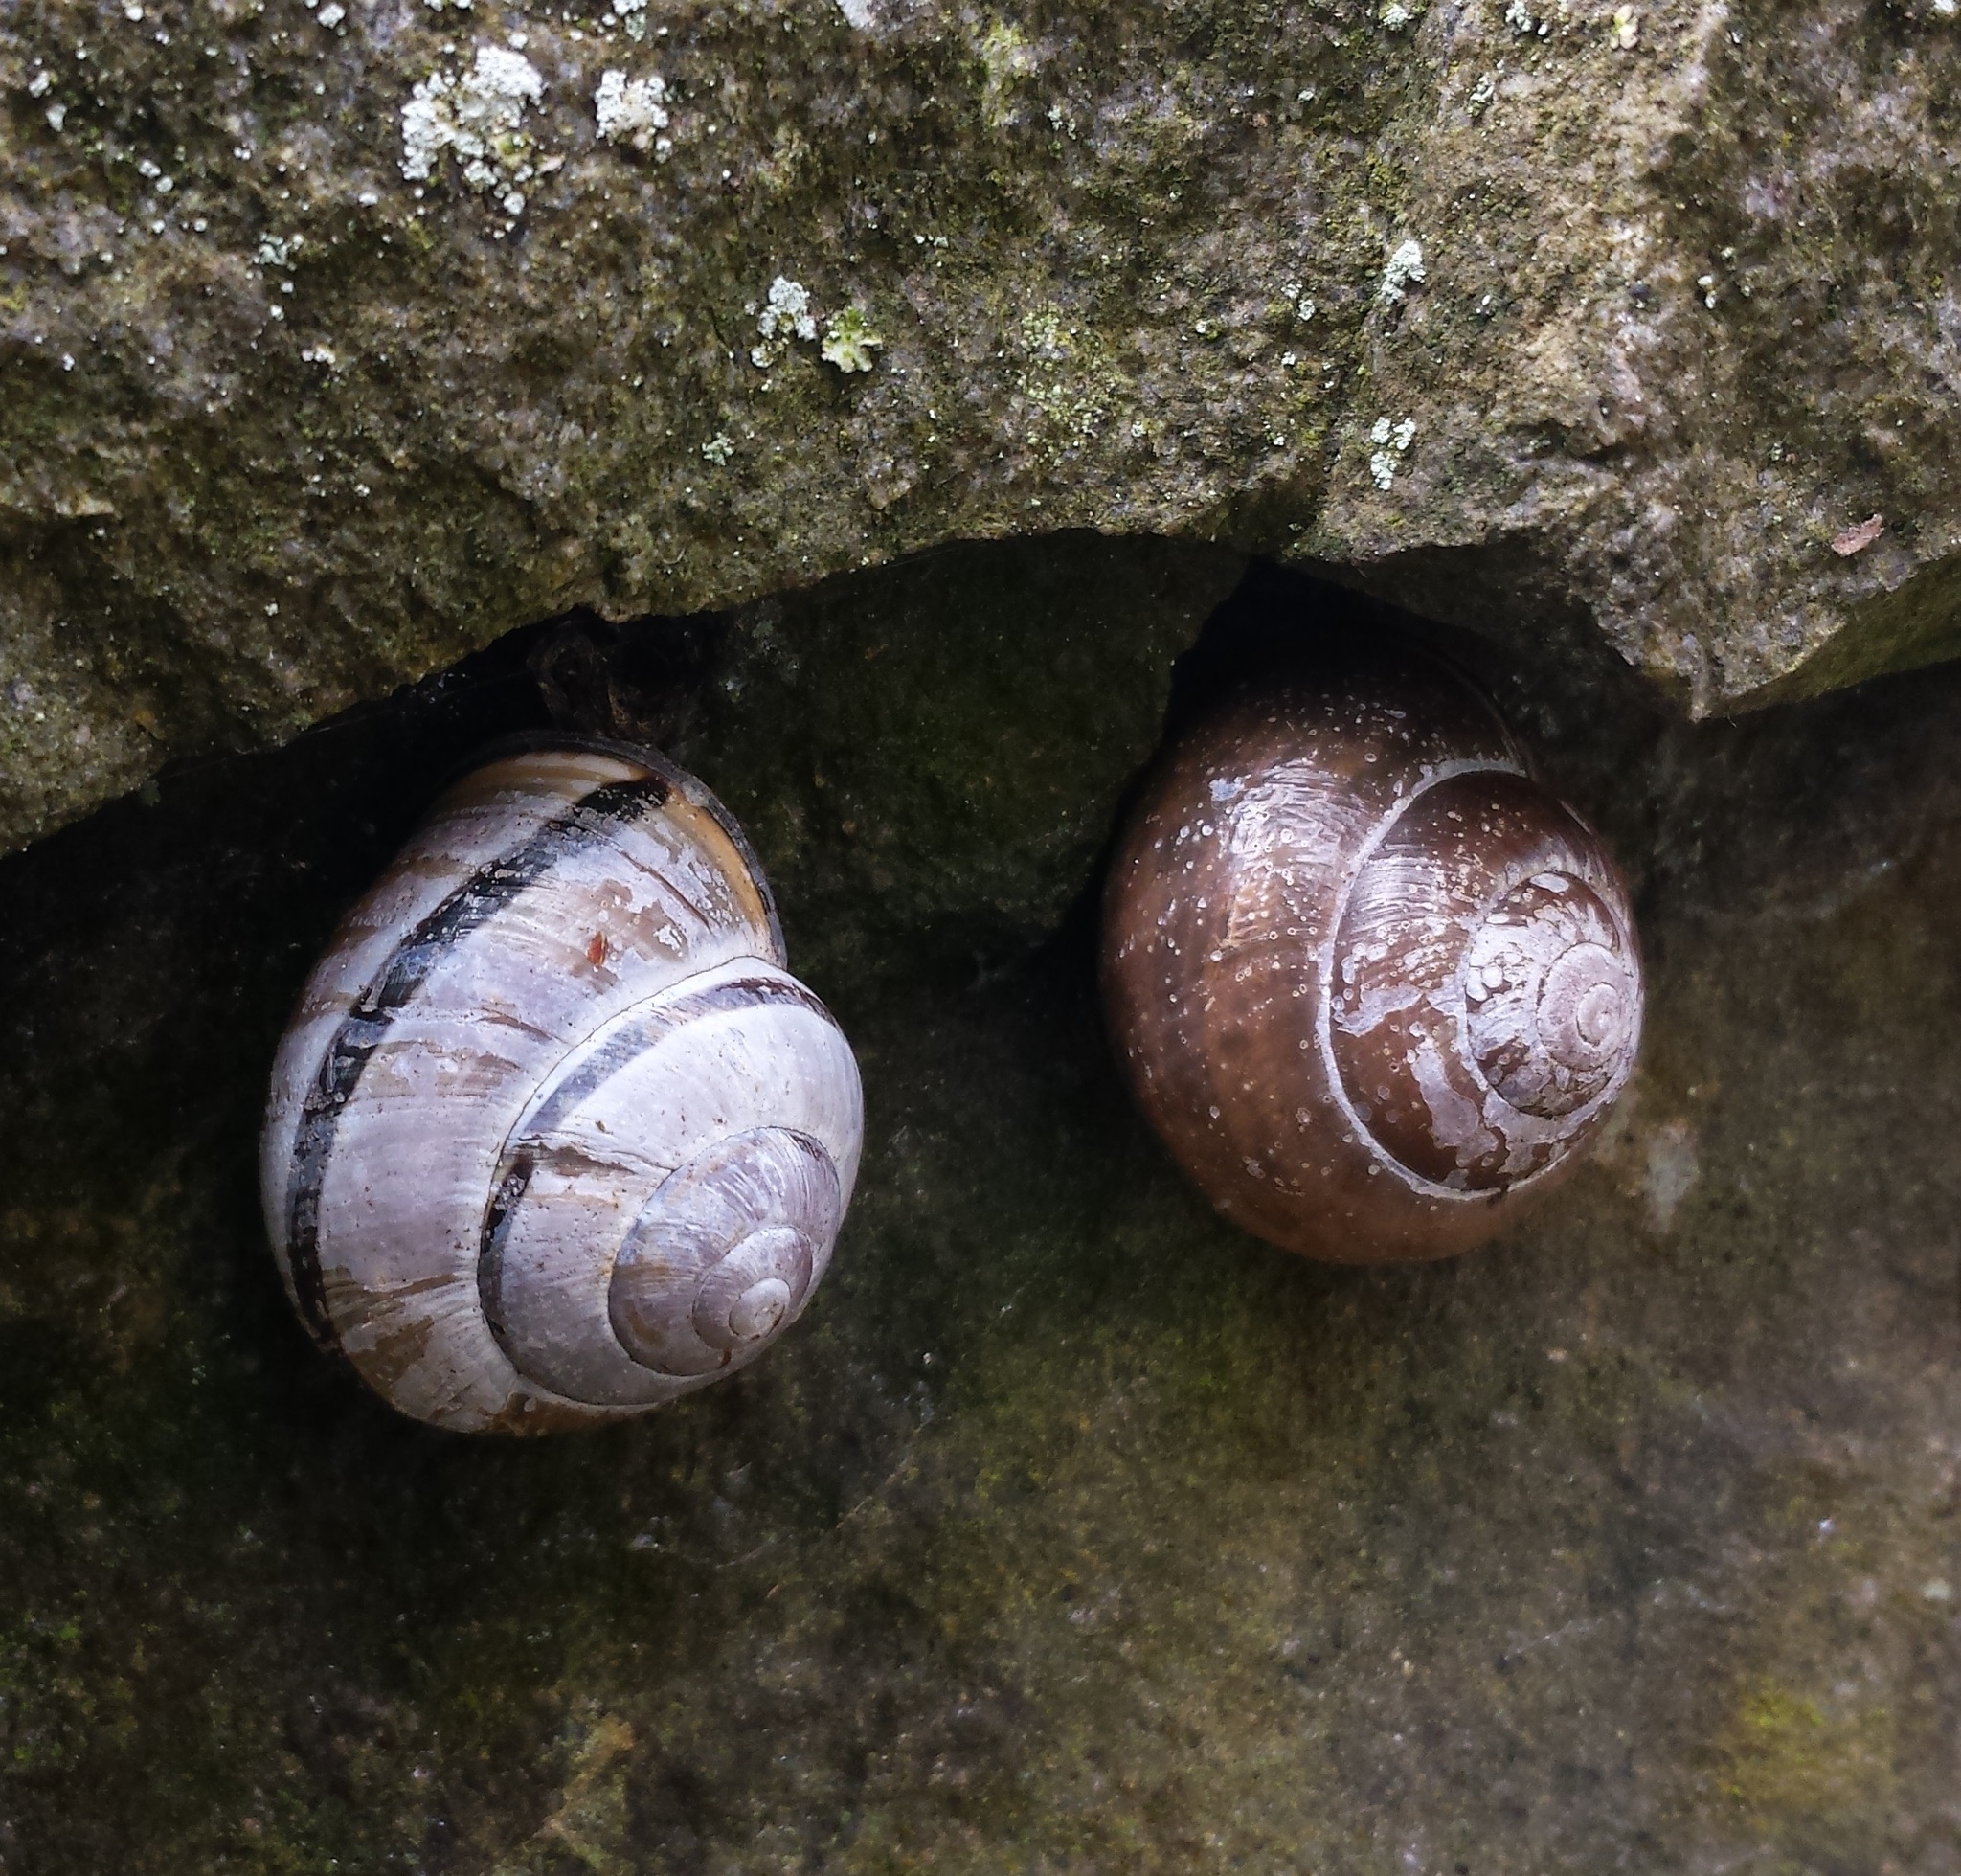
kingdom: Animalia
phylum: Mollusca
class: Gastropoda
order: Stylommatophora
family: Helicidae
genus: Cepaea
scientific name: Cepaea nemoralis
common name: Grovesnail
